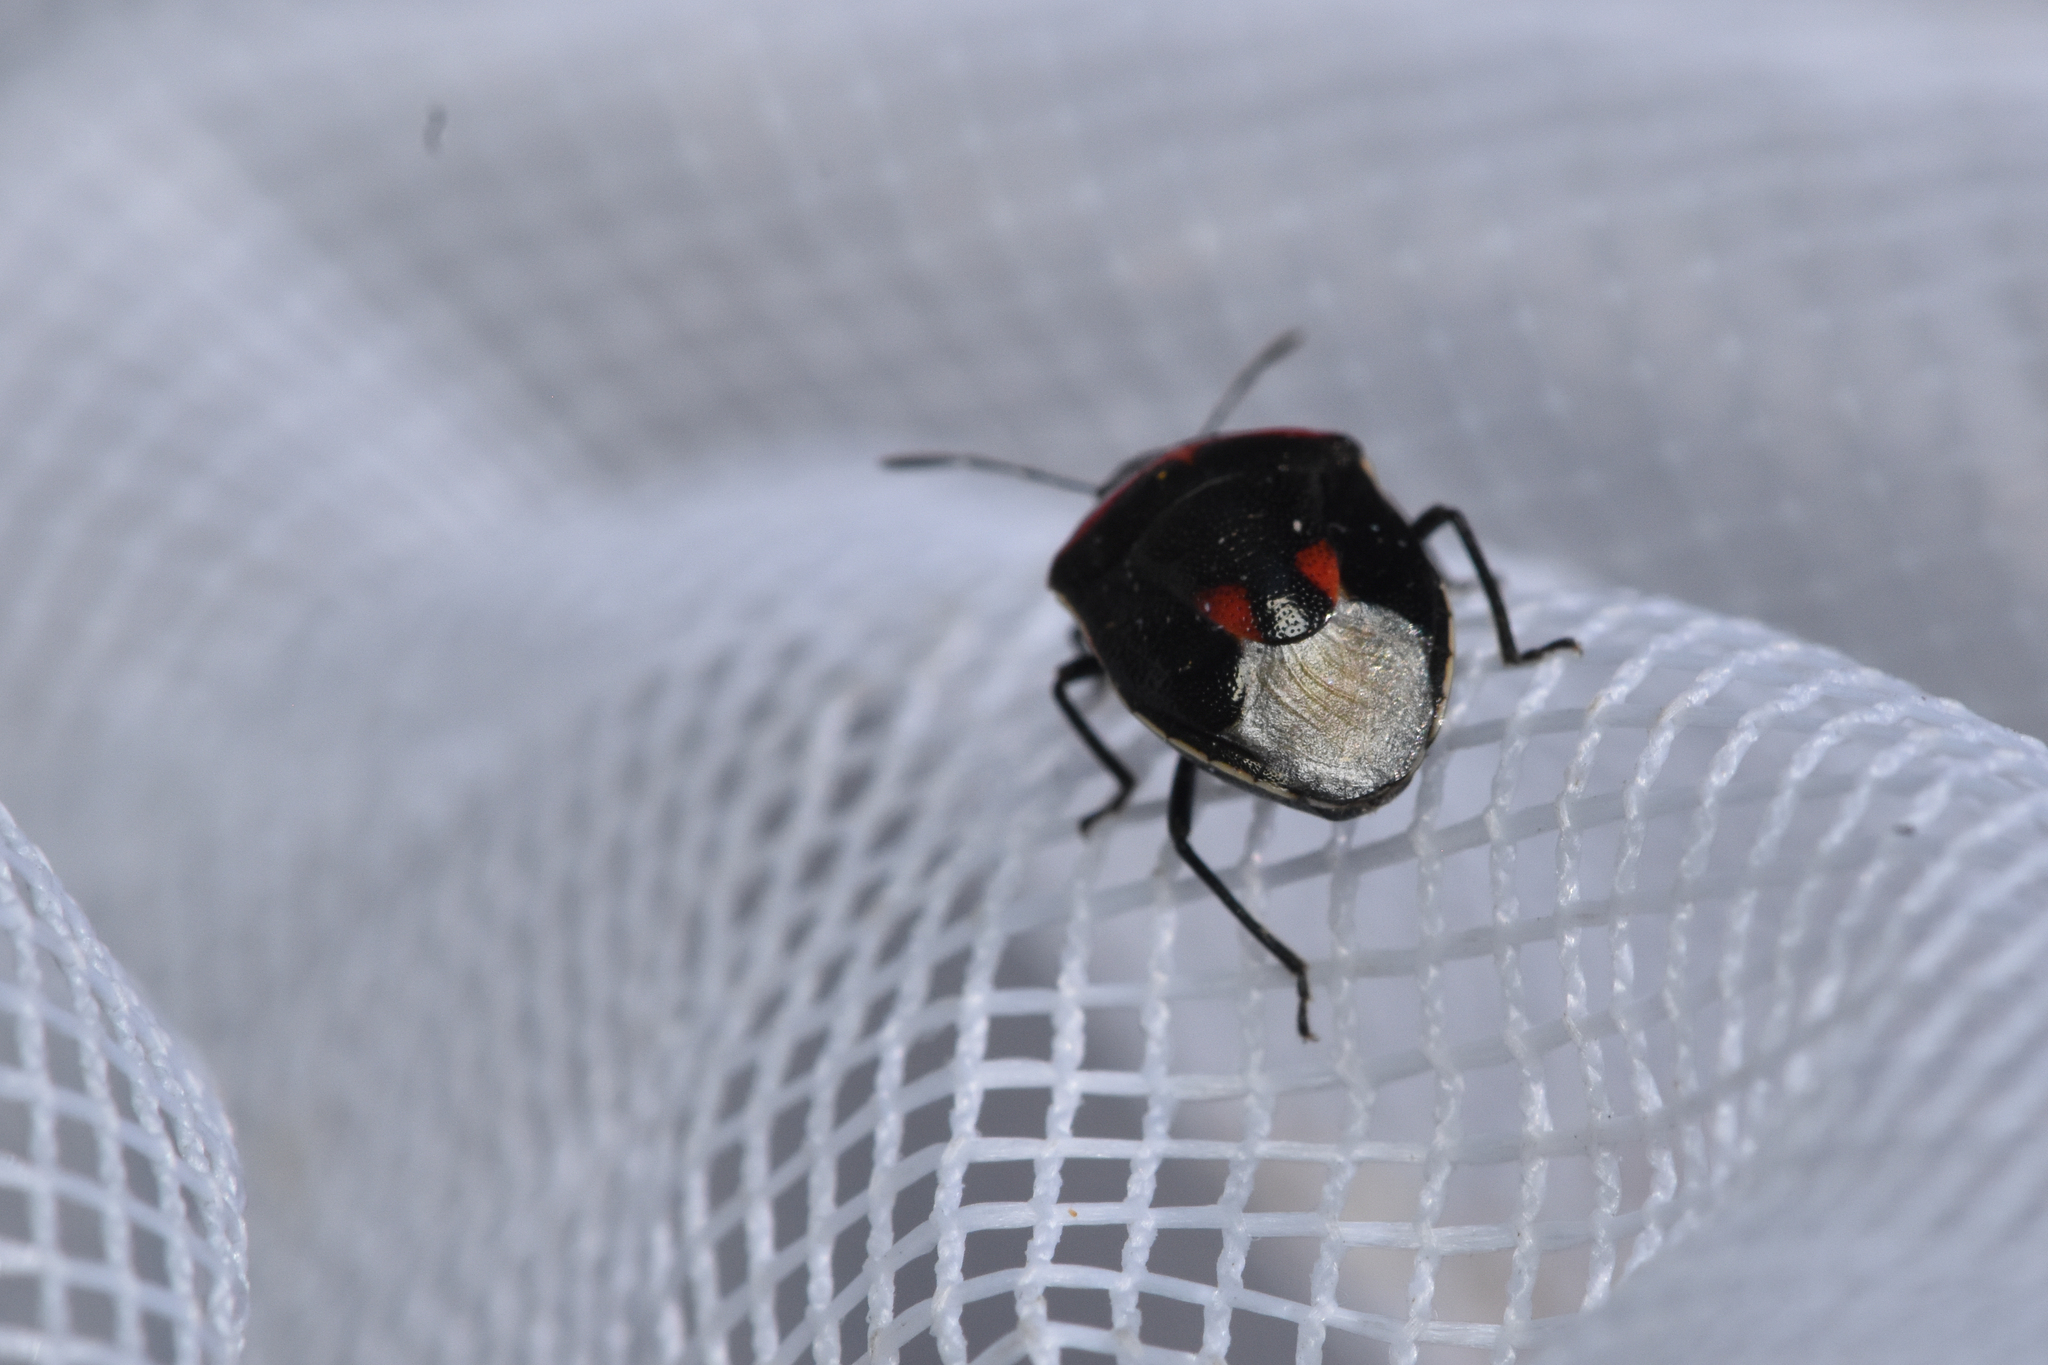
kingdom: Animalia
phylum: Arthropoda
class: Insecta
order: Hemiptera
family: Pentatomidae
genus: Cosmopepla
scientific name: Cosmopepla lintneriana
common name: Twice-stabbed stink bug
